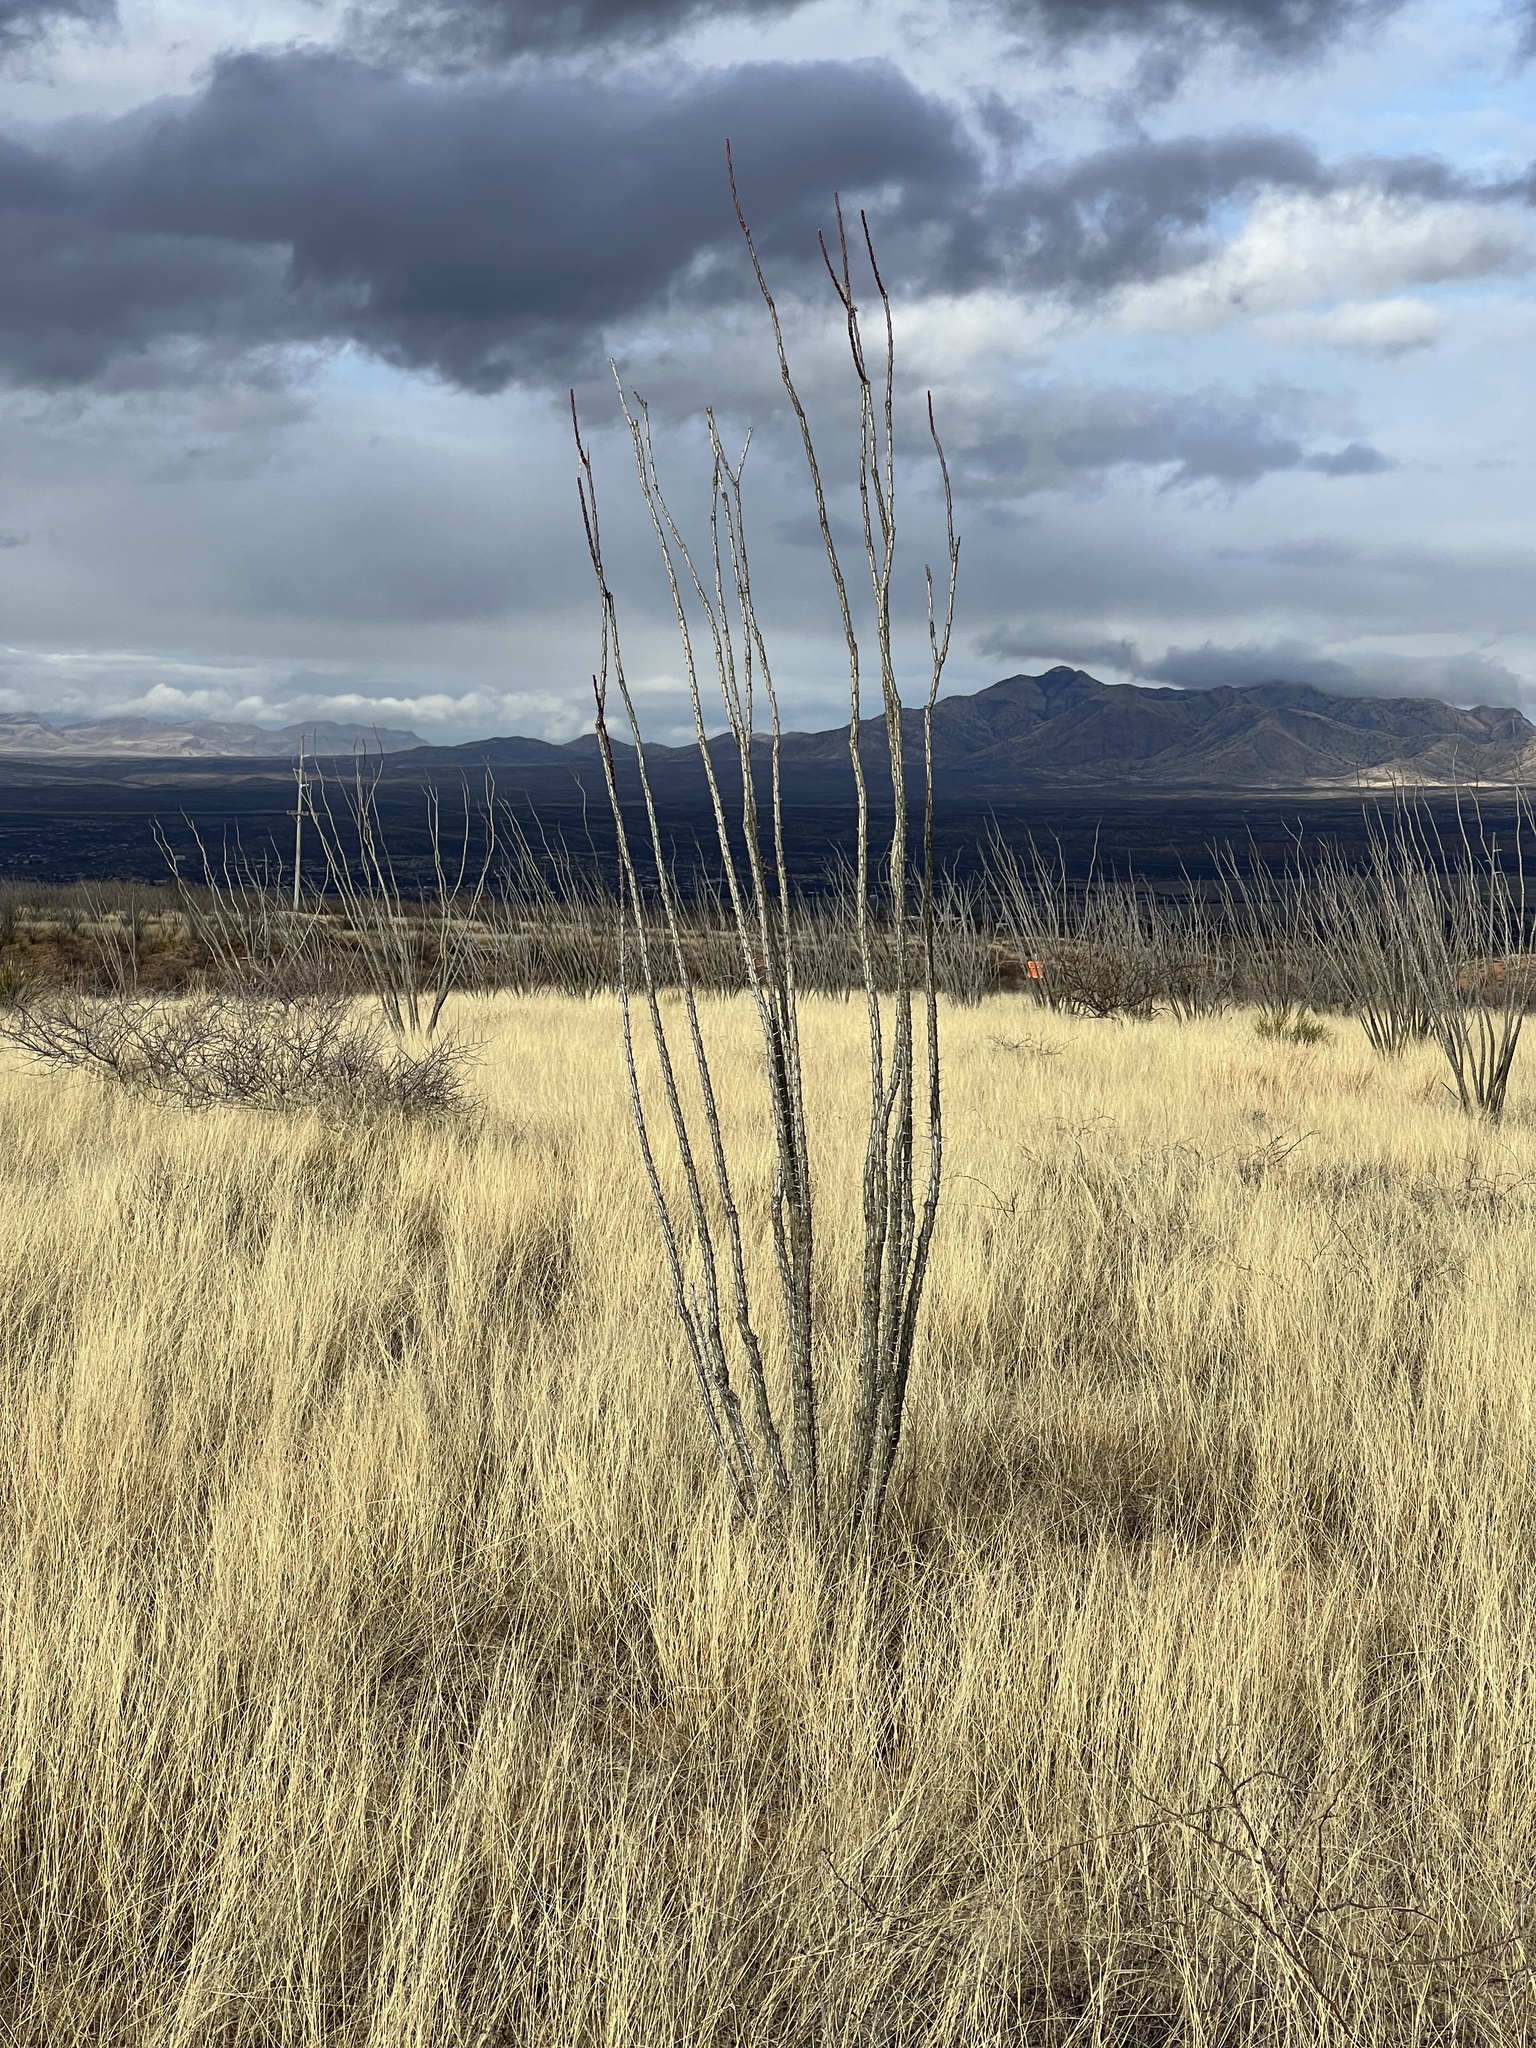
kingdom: Plantae
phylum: Tracheophyta
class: Magnoliopsida
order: Ericales
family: Fouquieriaceae
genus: Fouquieria
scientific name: Fouquieria splendens
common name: Vine-cactus
